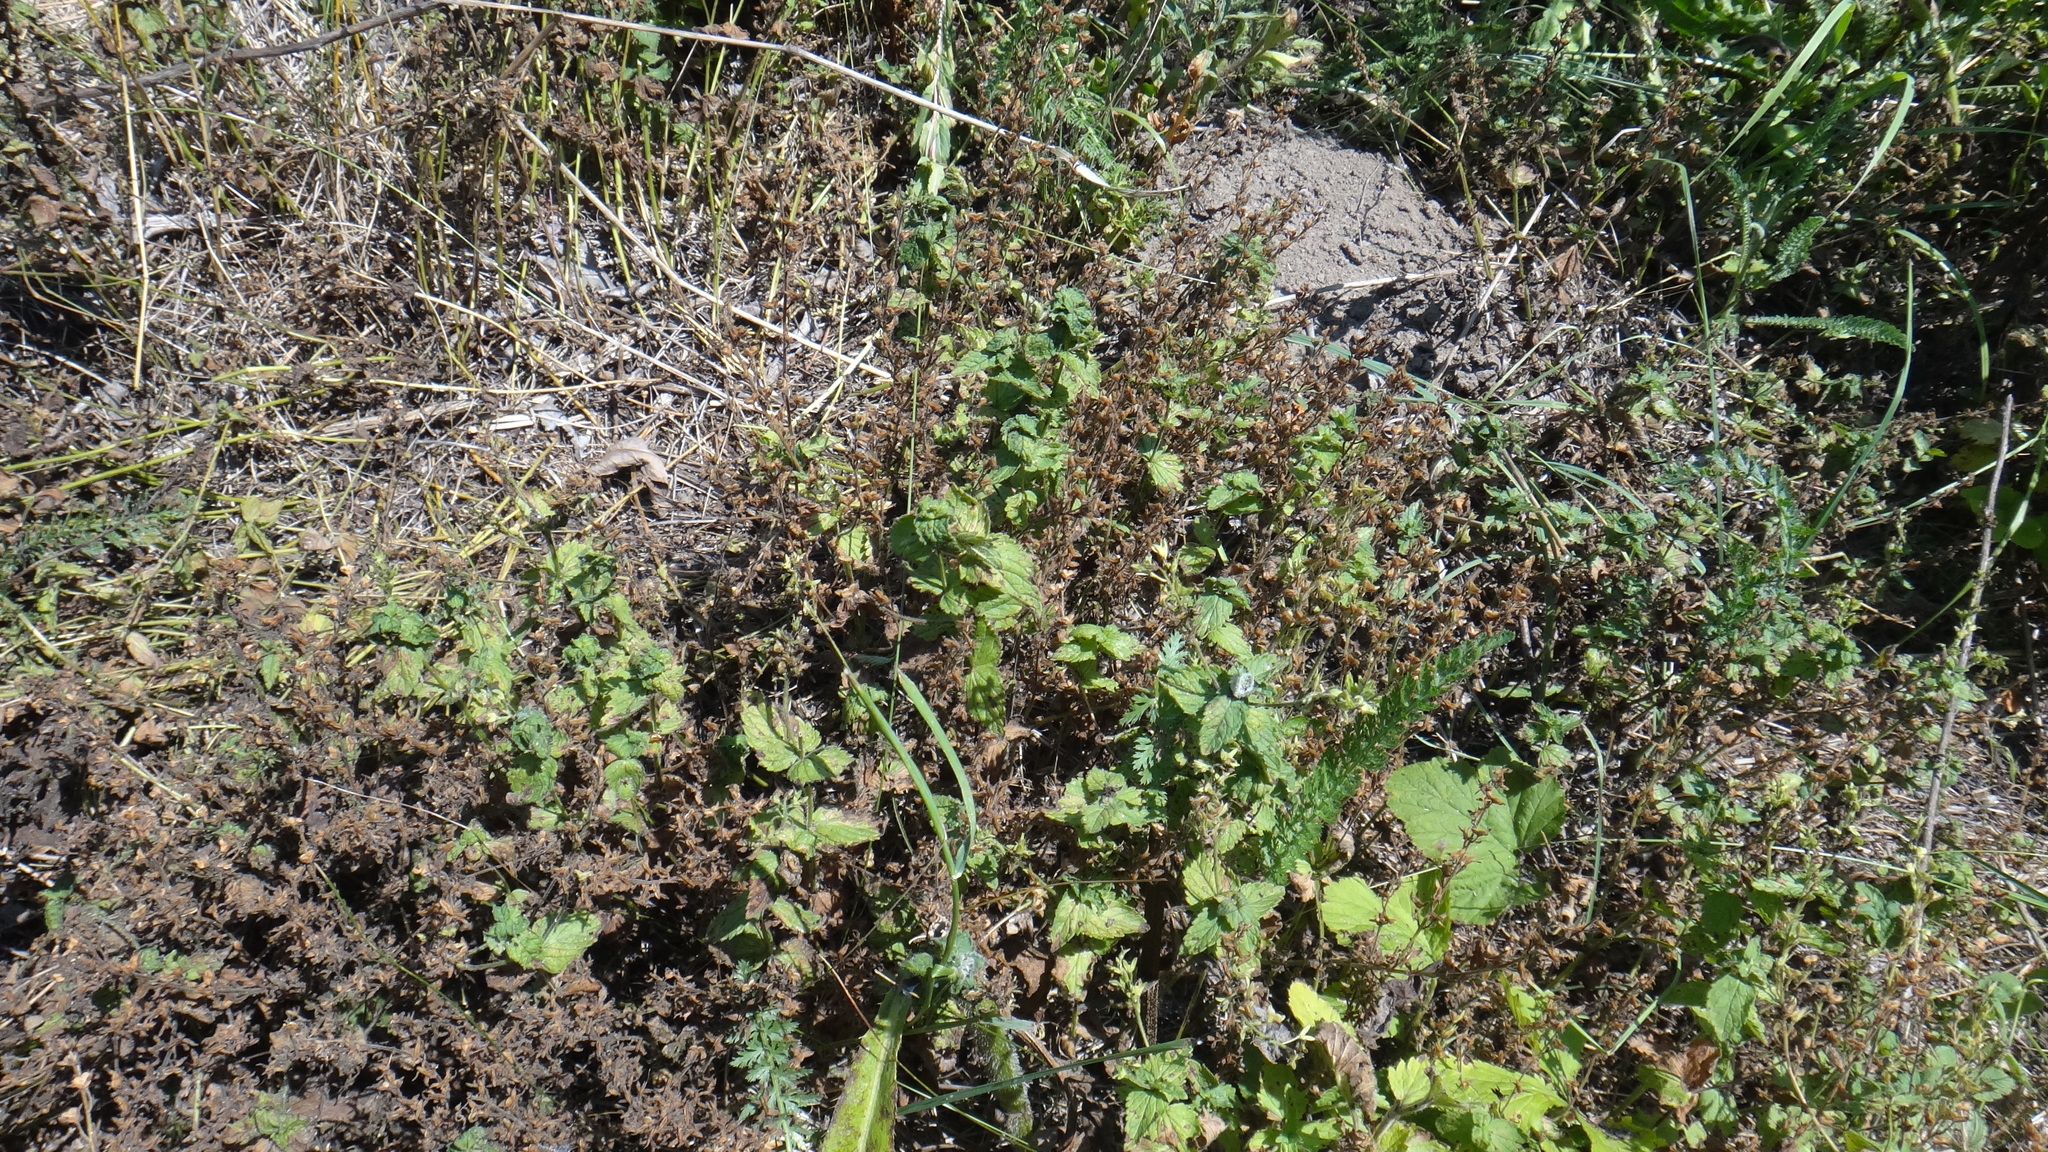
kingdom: Plantae
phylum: Tracheophyta
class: Magnoliopsida
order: Lamiales
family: Plantaginaceae
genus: Veronica
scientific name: Veronica chamaedrys
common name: Germander speedwell
